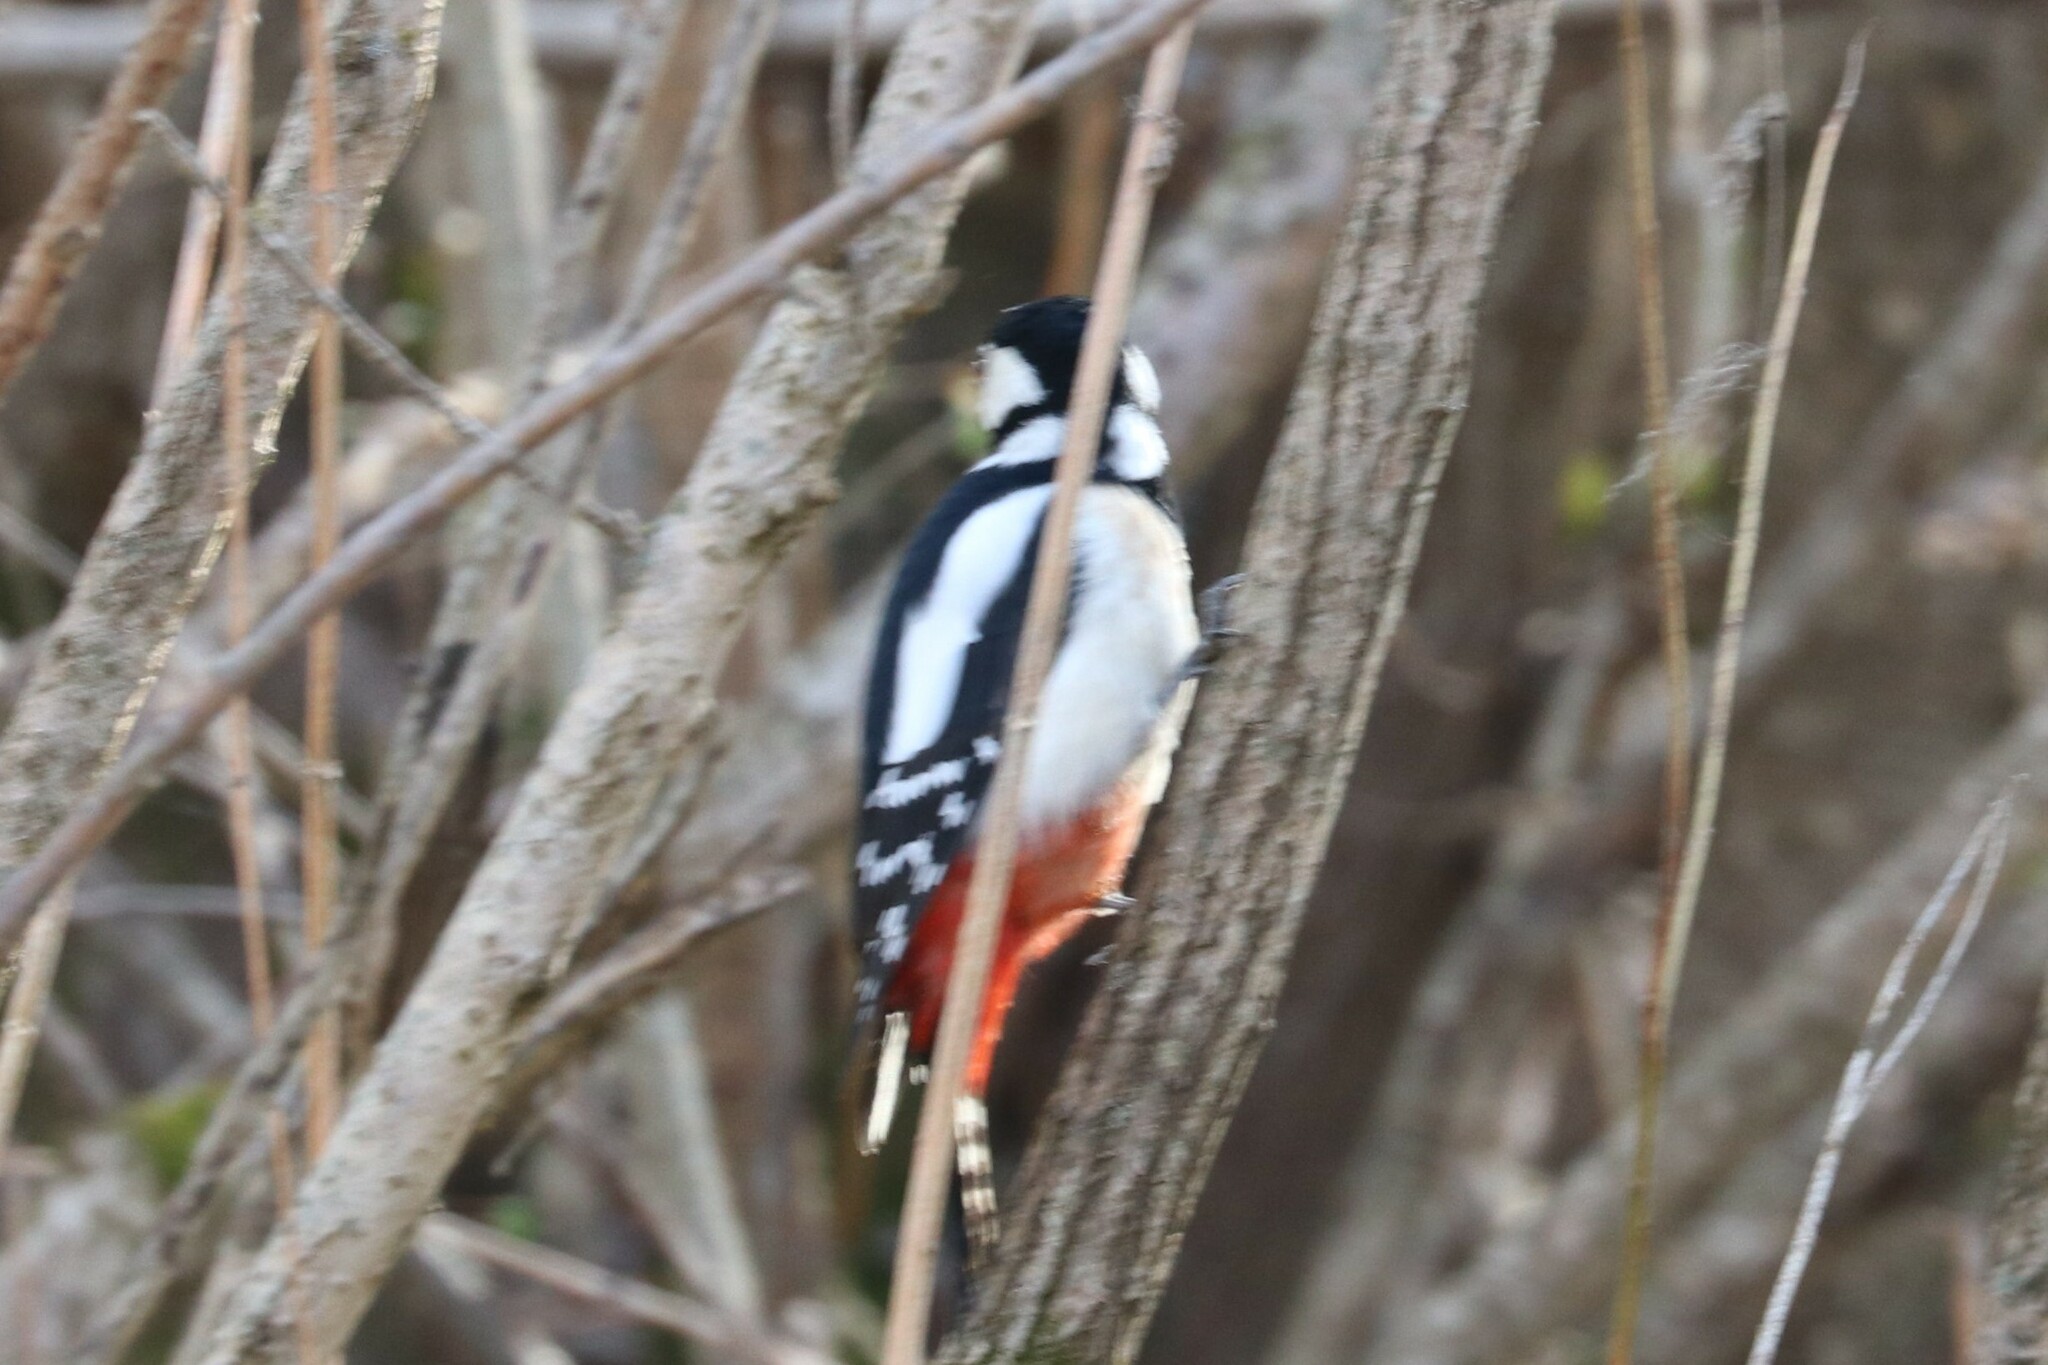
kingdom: Animalia
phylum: Chordata
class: Aves
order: Piciformes
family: Picidae
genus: Dendrocopos
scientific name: Dendrocopos major
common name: Great spotted woodpecker
